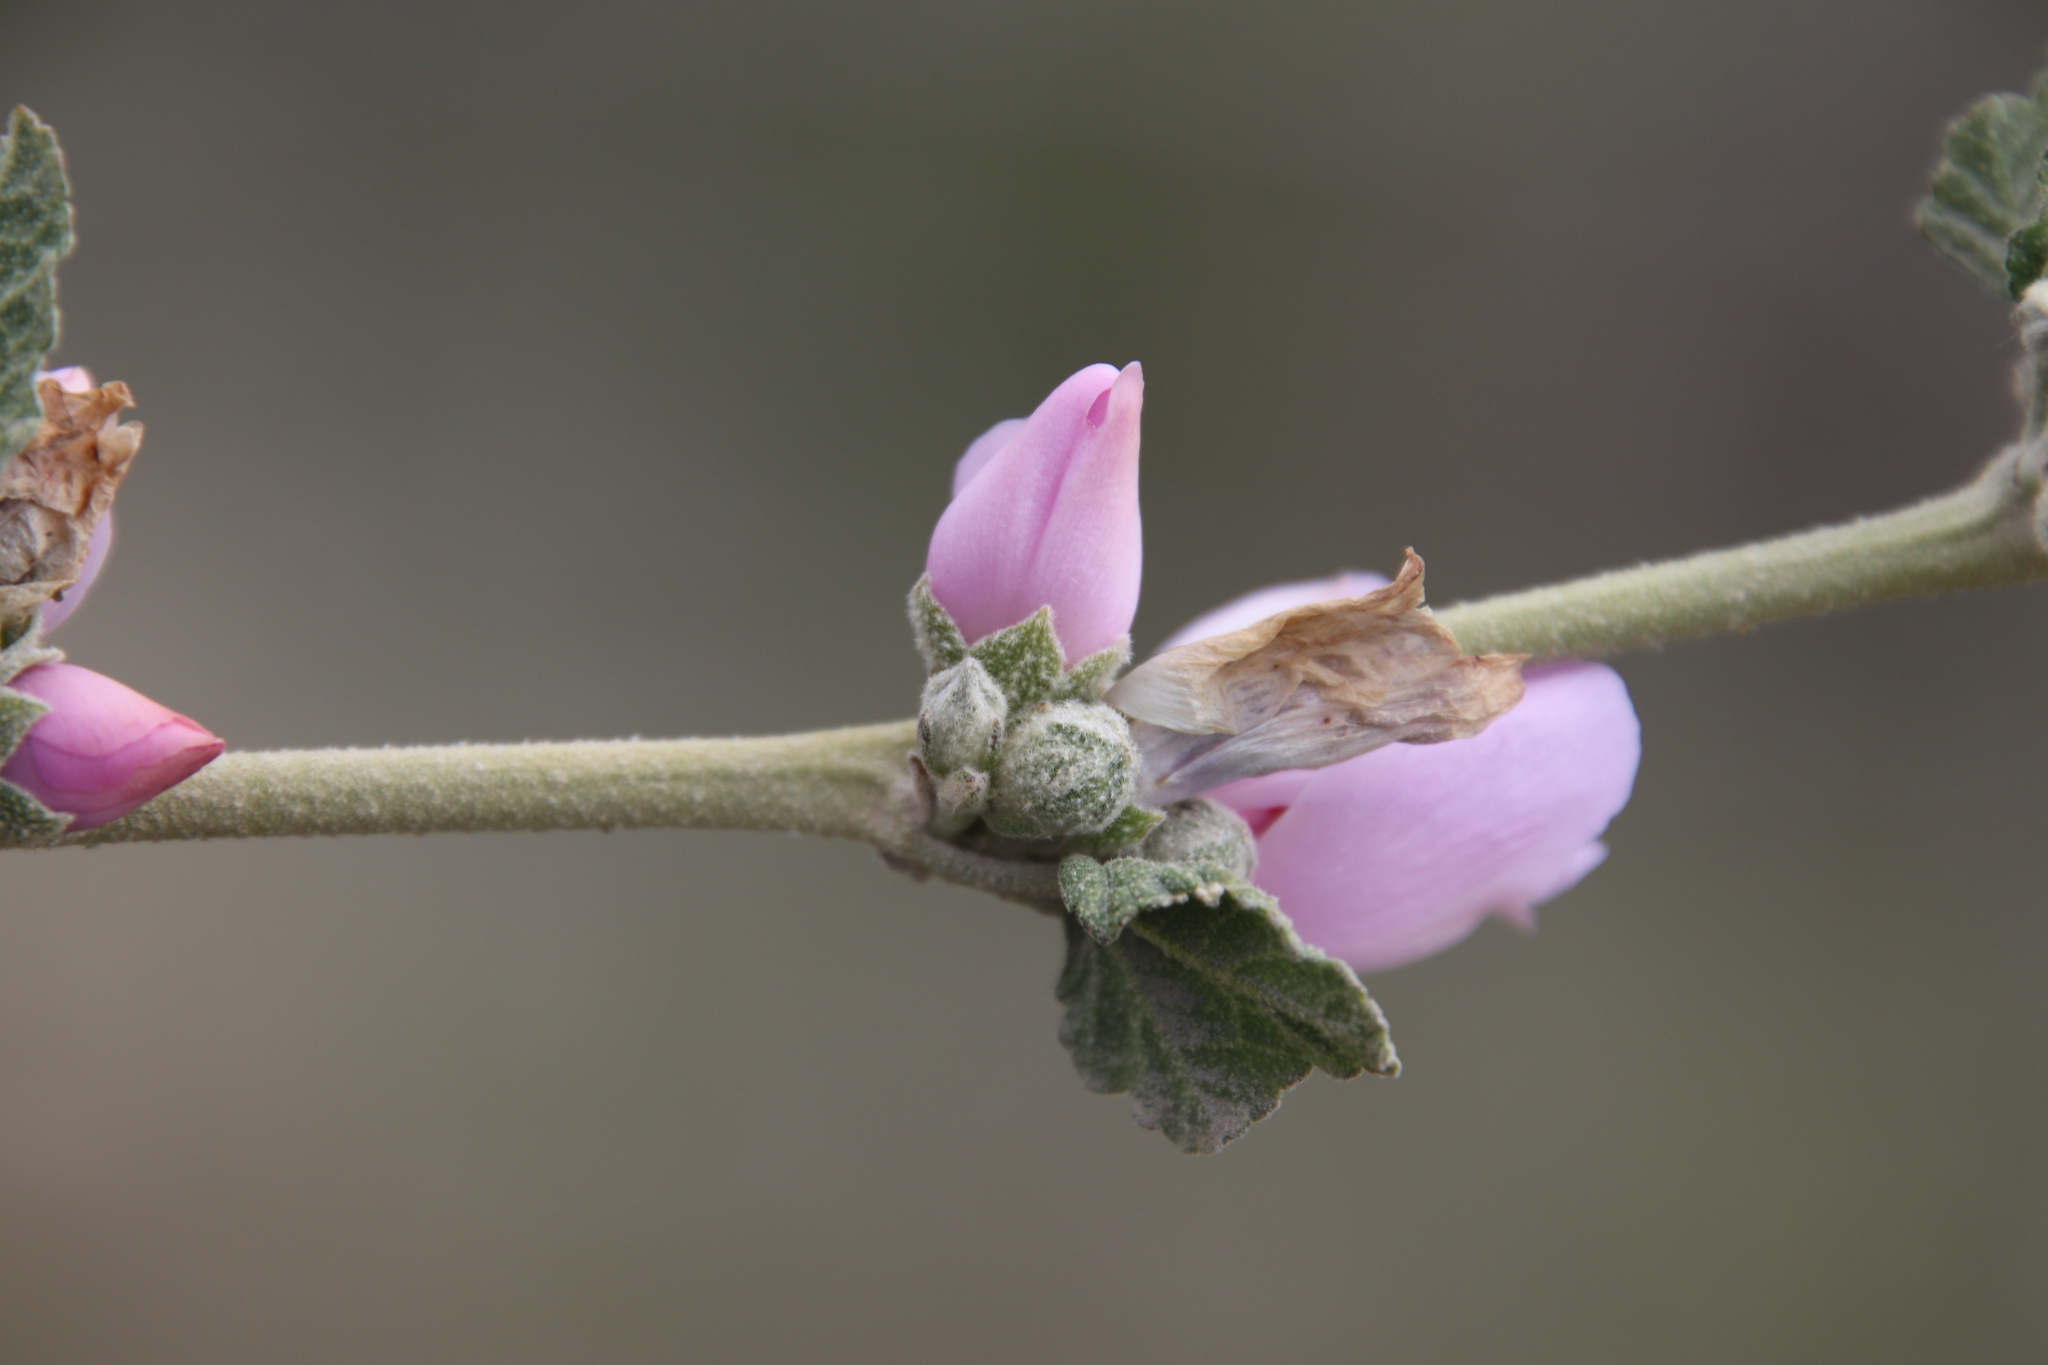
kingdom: Plantae
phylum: Tracheophyta
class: Magnoliopsida
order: Malvales
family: Malvaceae
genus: Malacothamnus
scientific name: Malacothamnus fasciculatus
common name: Sant cruz island bush-mallow
